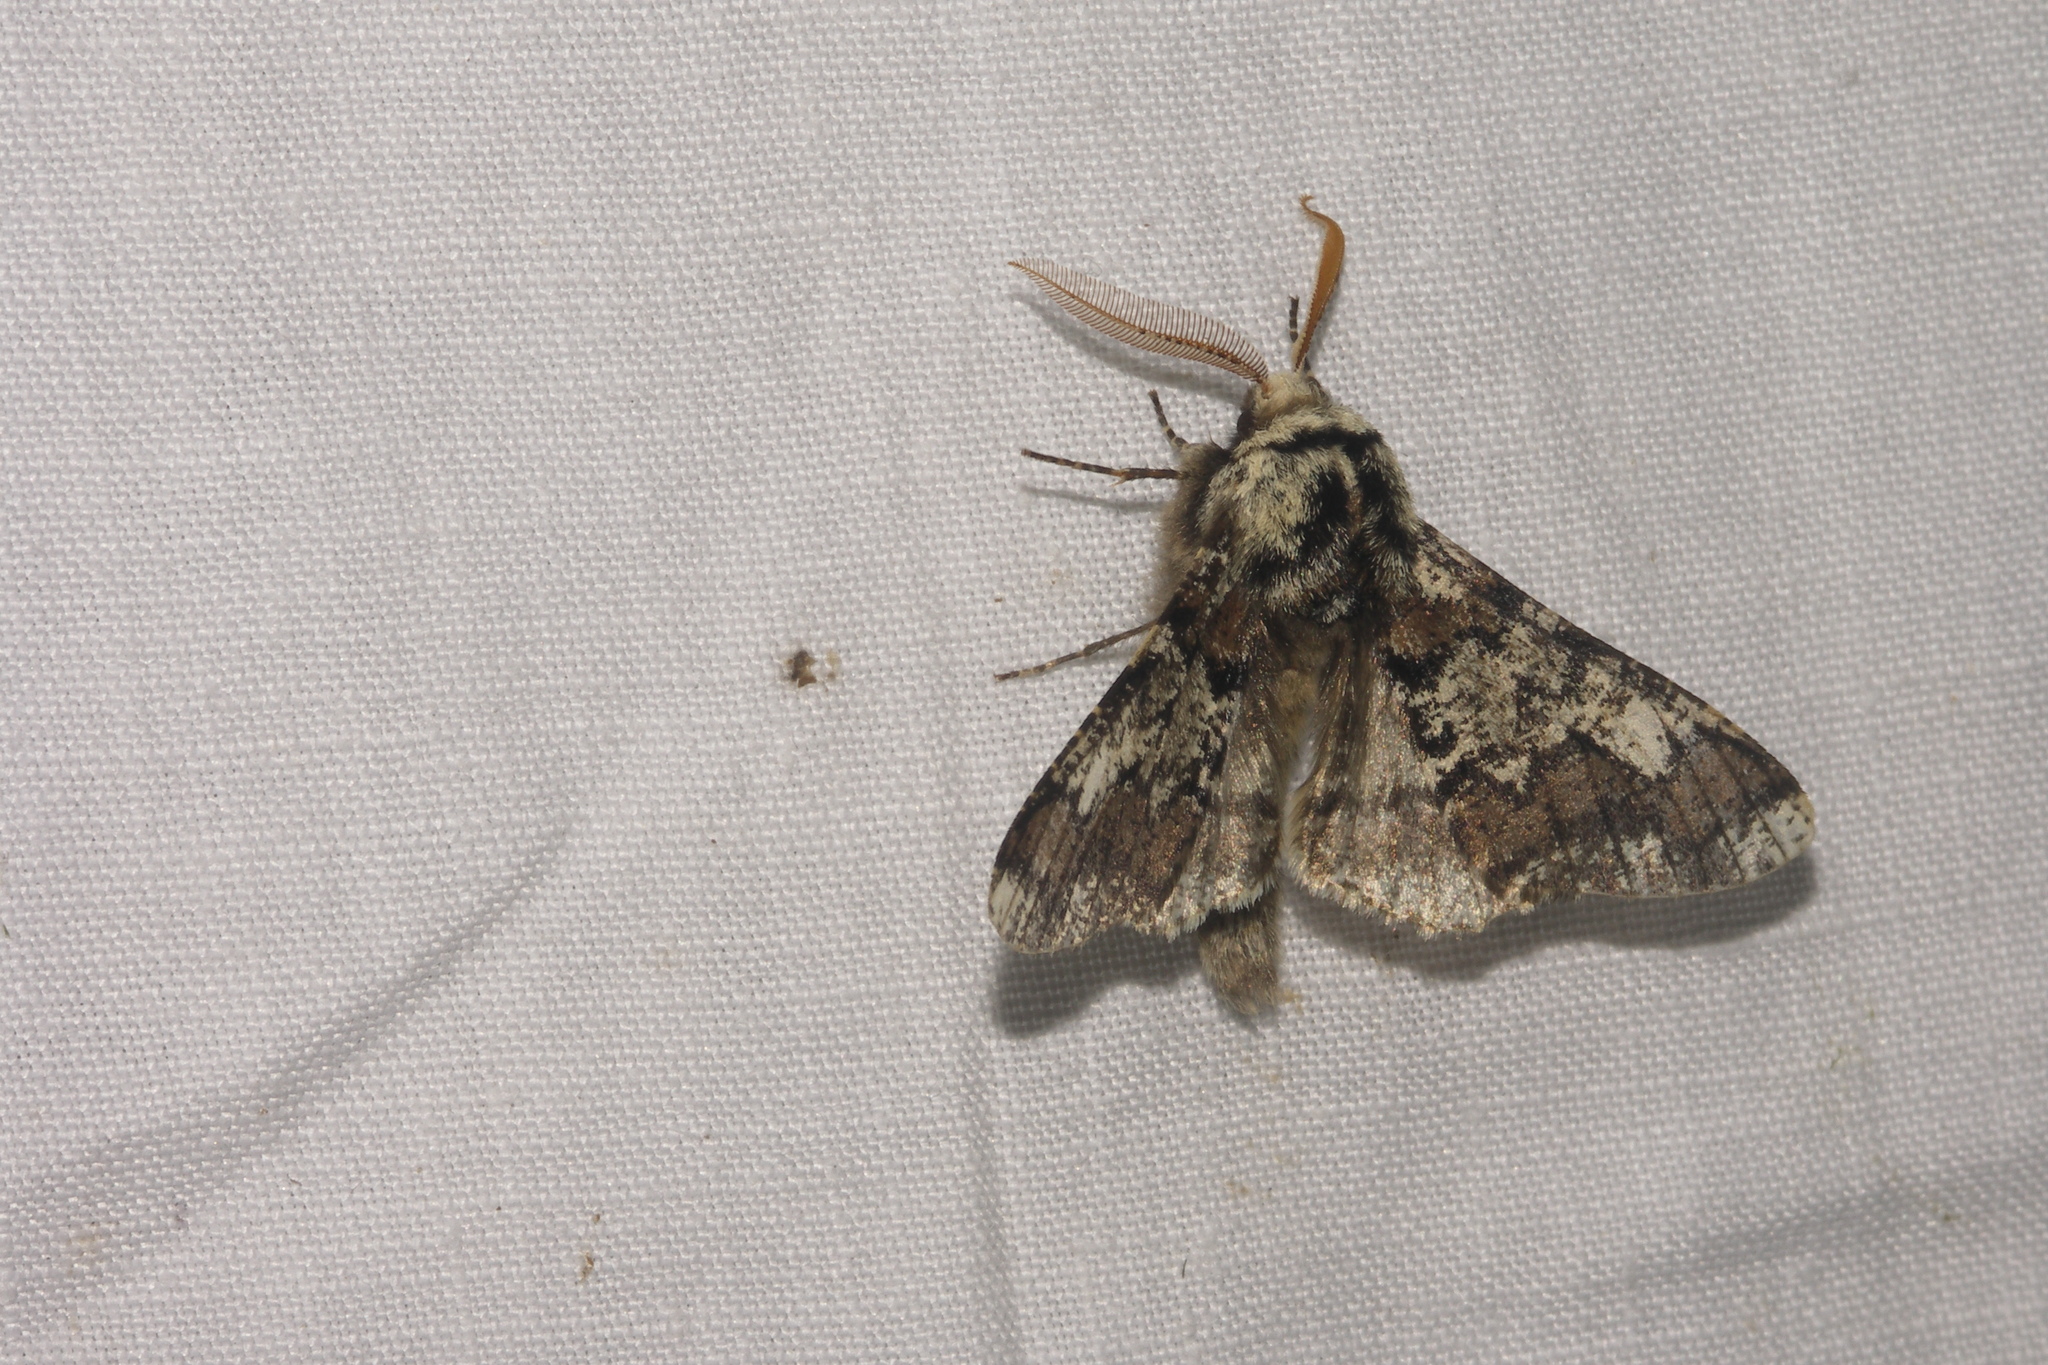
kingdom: Animalia
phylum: Arthropoda
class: Insecta
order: Lepidoptera
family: Geometridae
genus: Biston
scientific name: Biston strataria
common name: Oak beauty
